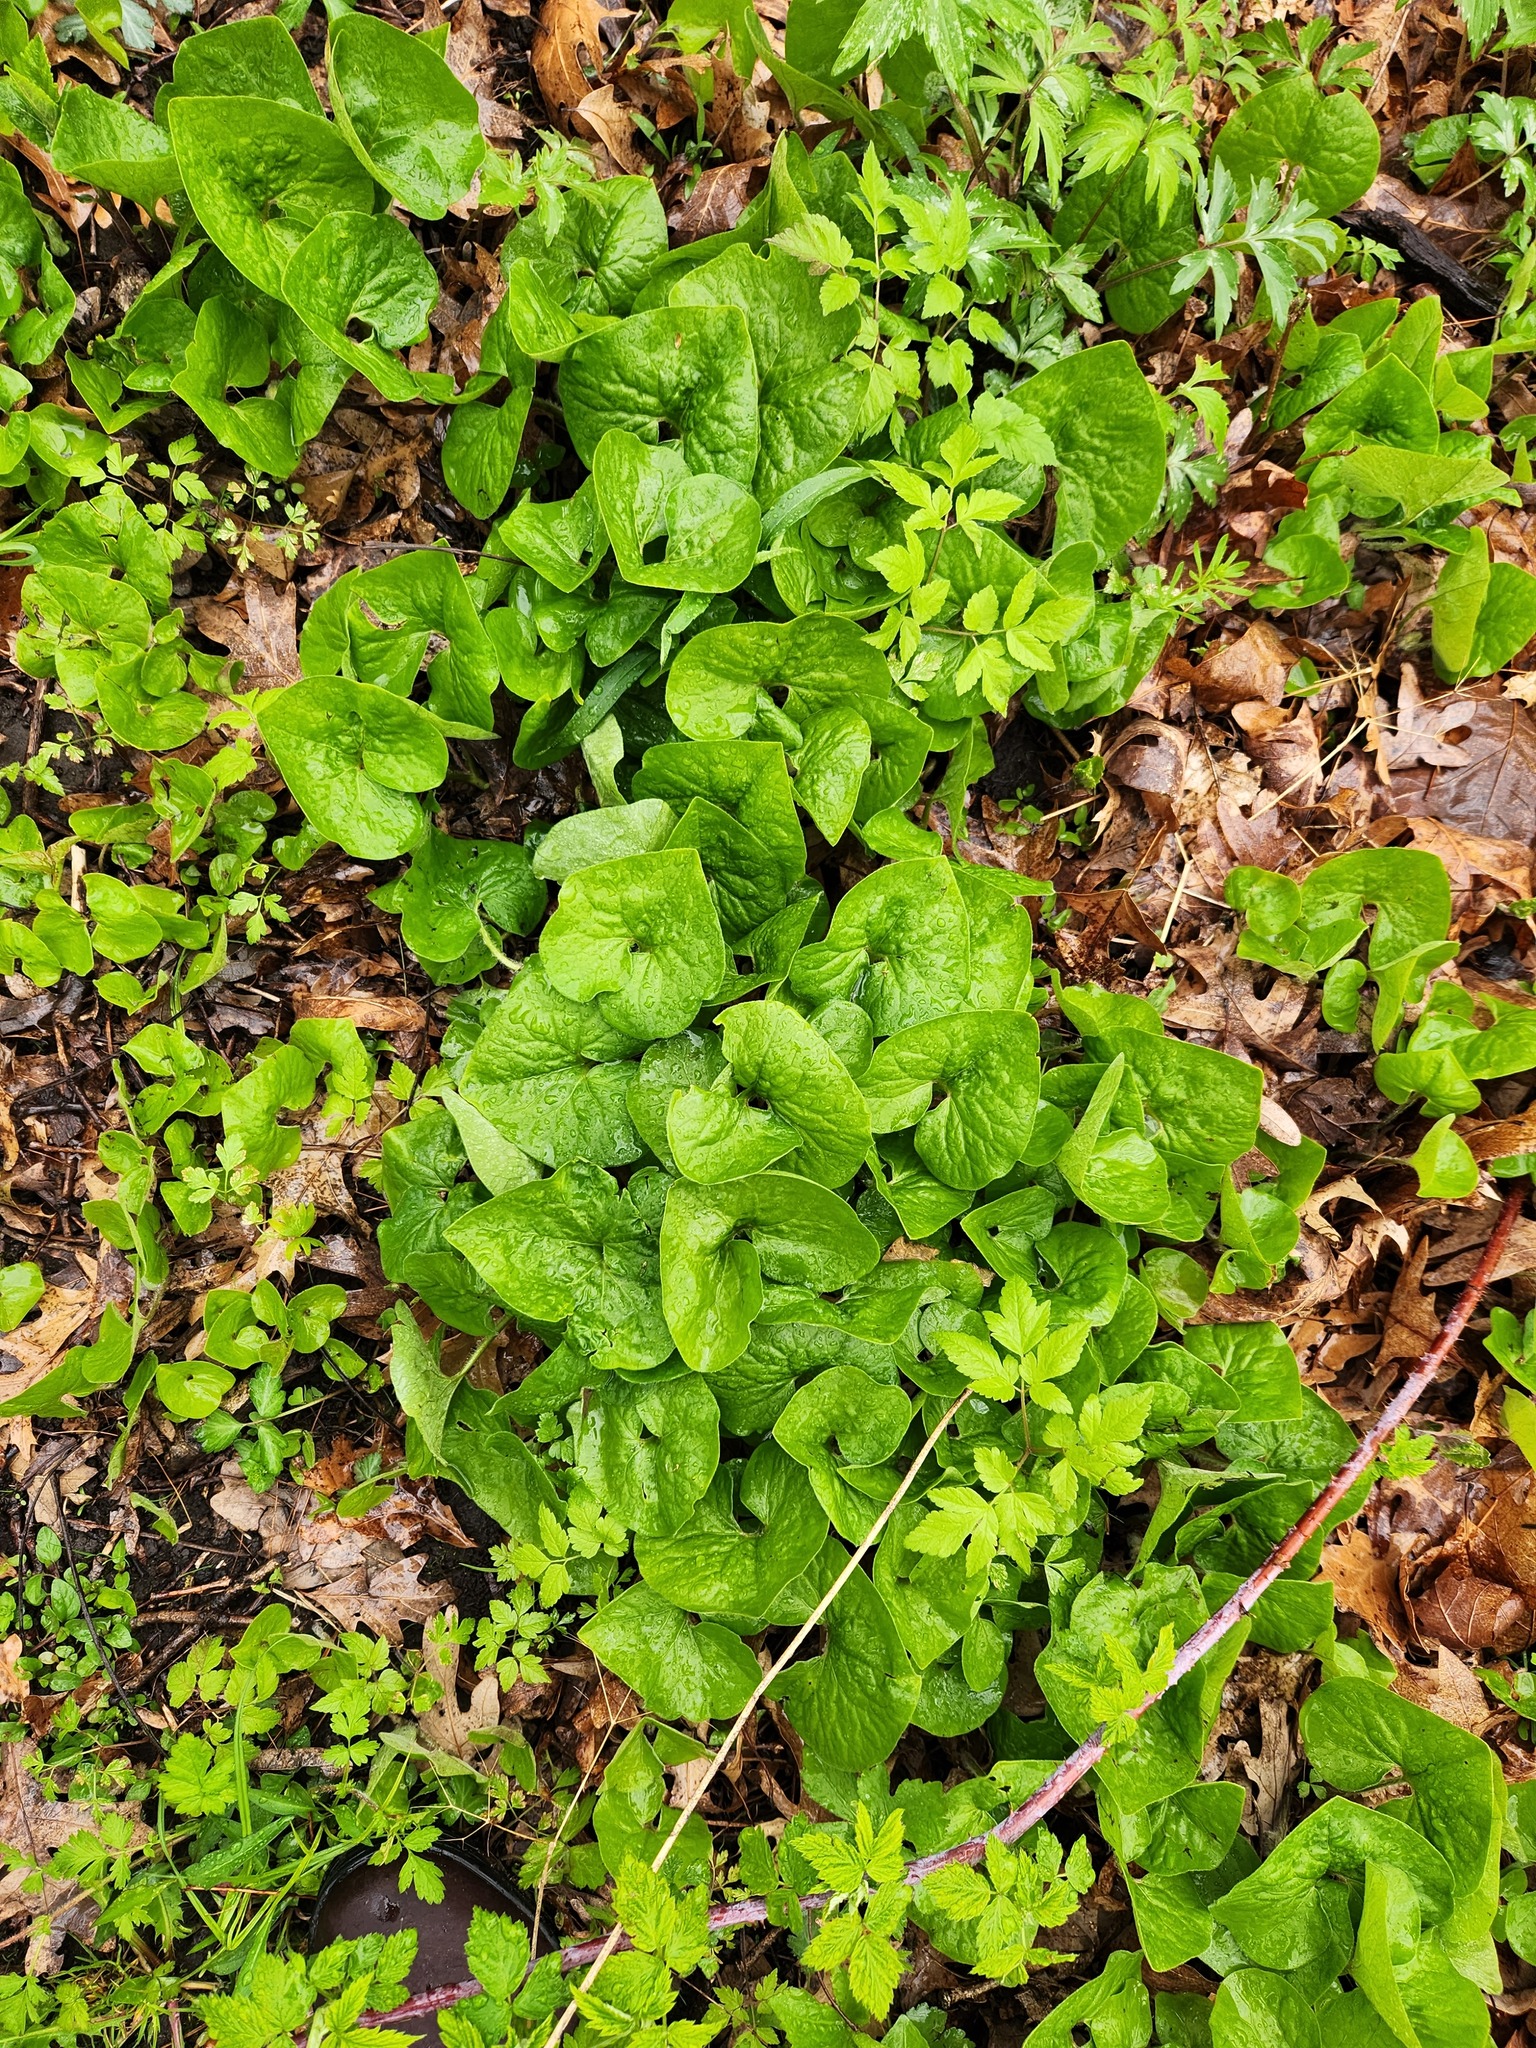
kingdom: Plantae
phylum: Tracheophyta
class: Magnoliopsida
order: Piperales
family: Aristolochiaceae
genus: Asarum
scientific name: Asarum canadense
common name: Wild ginger
